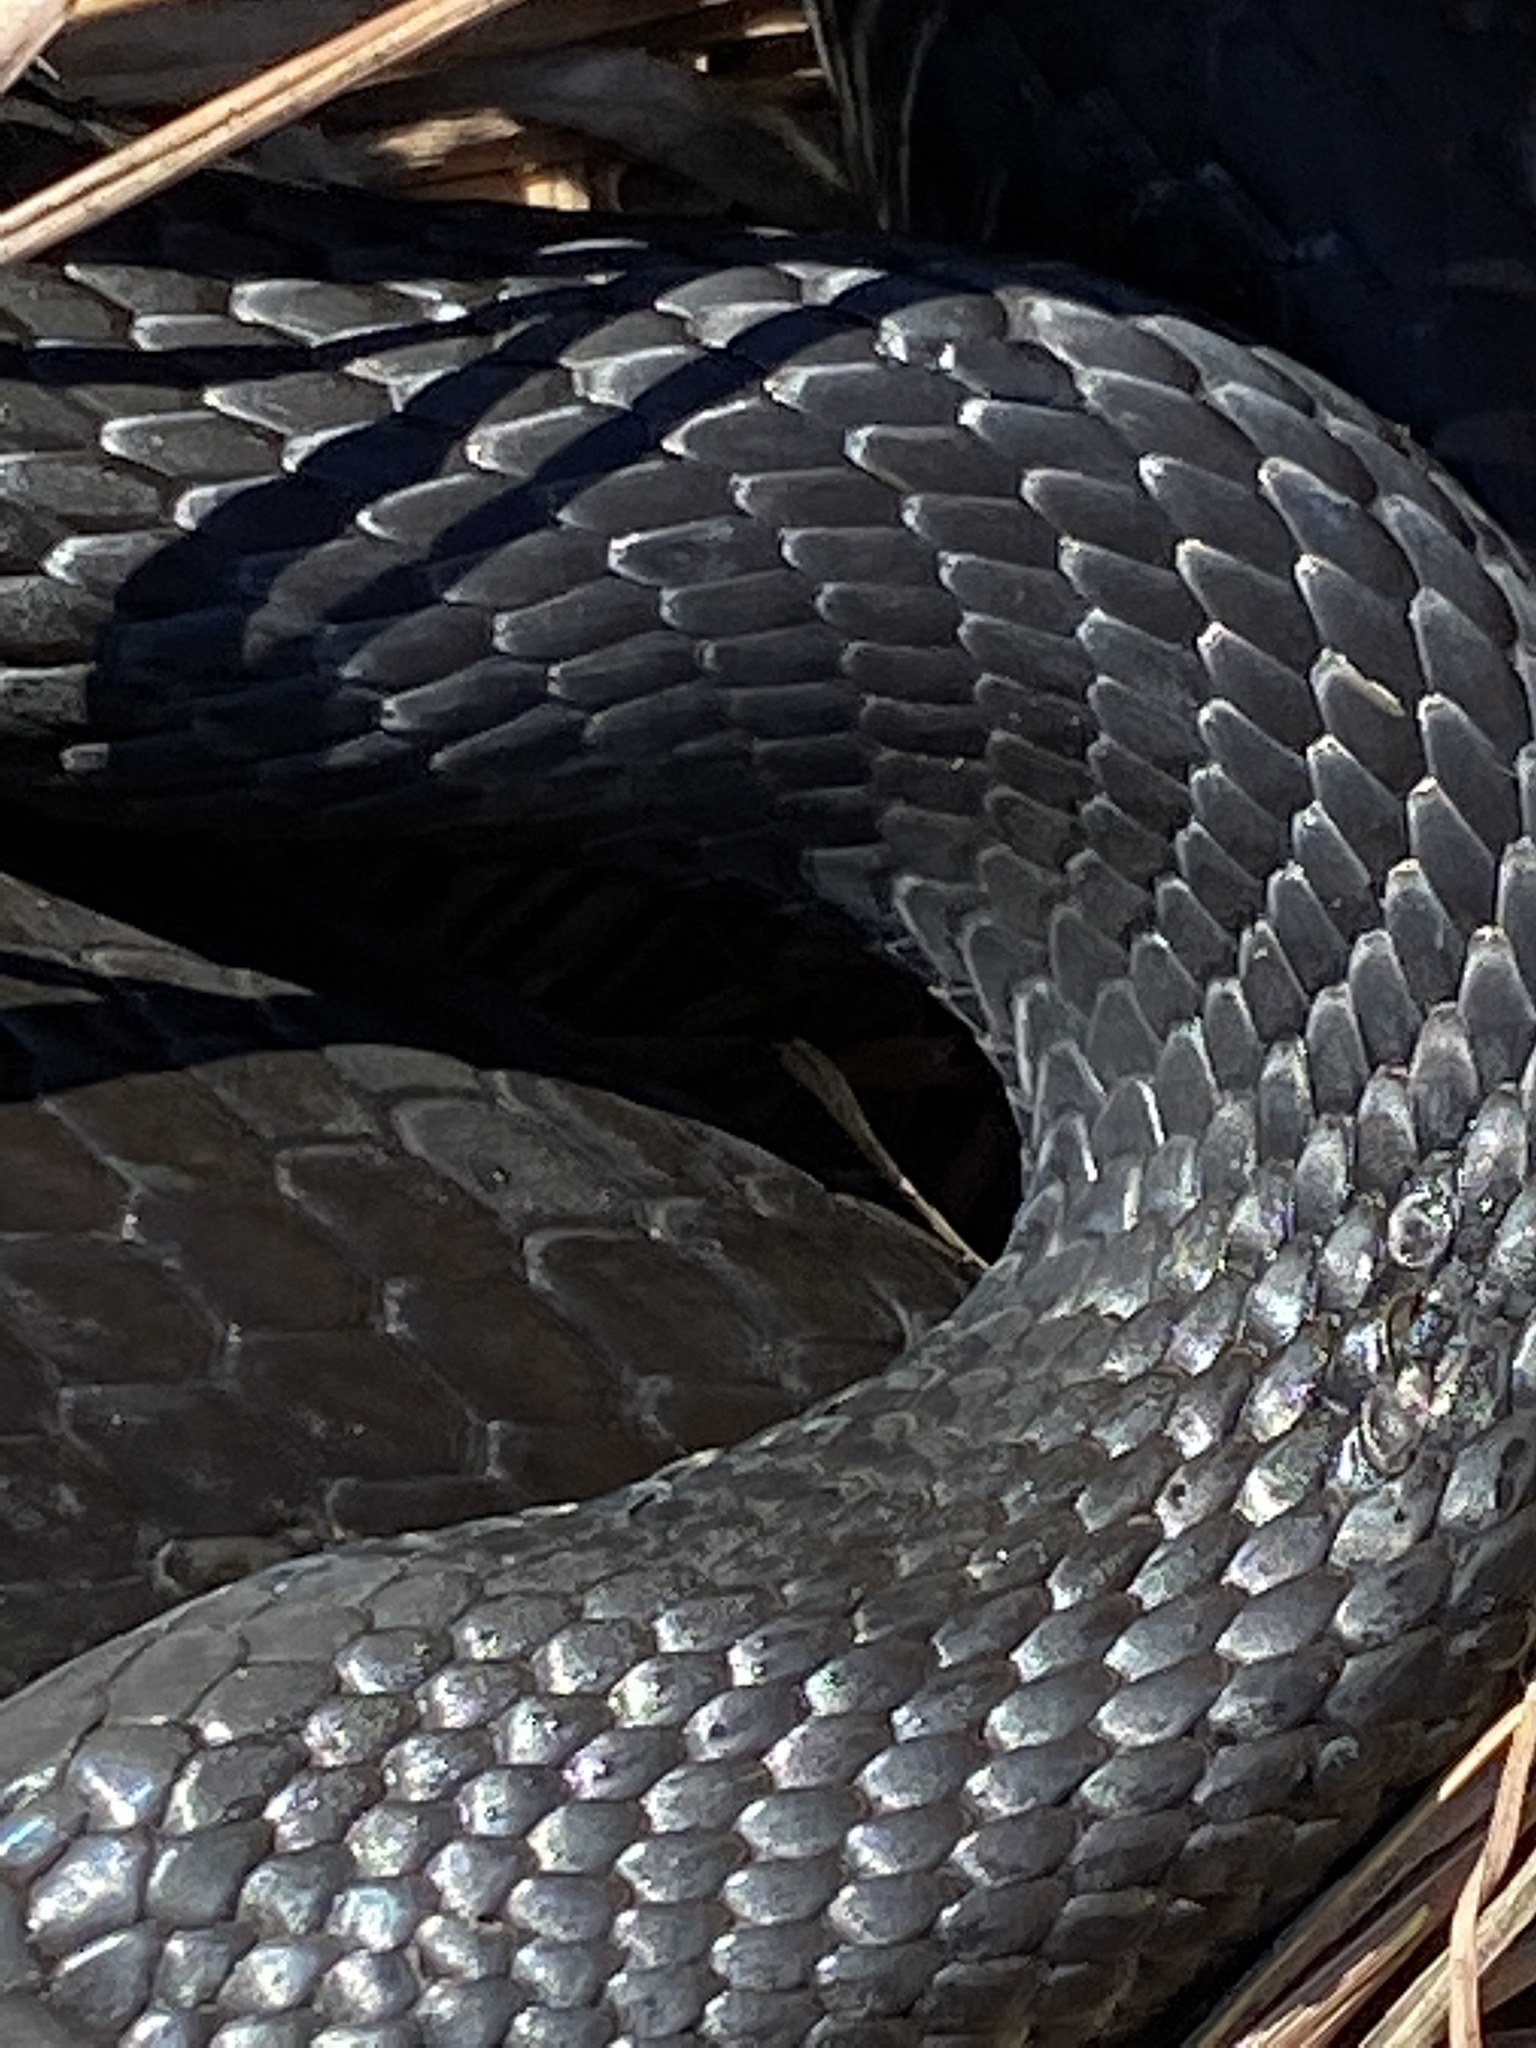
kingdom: Animalia
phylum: Chordata
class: Squamata
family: Colubridae
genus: Coluber
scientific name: Coluber constrictor
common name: Eastern racer
